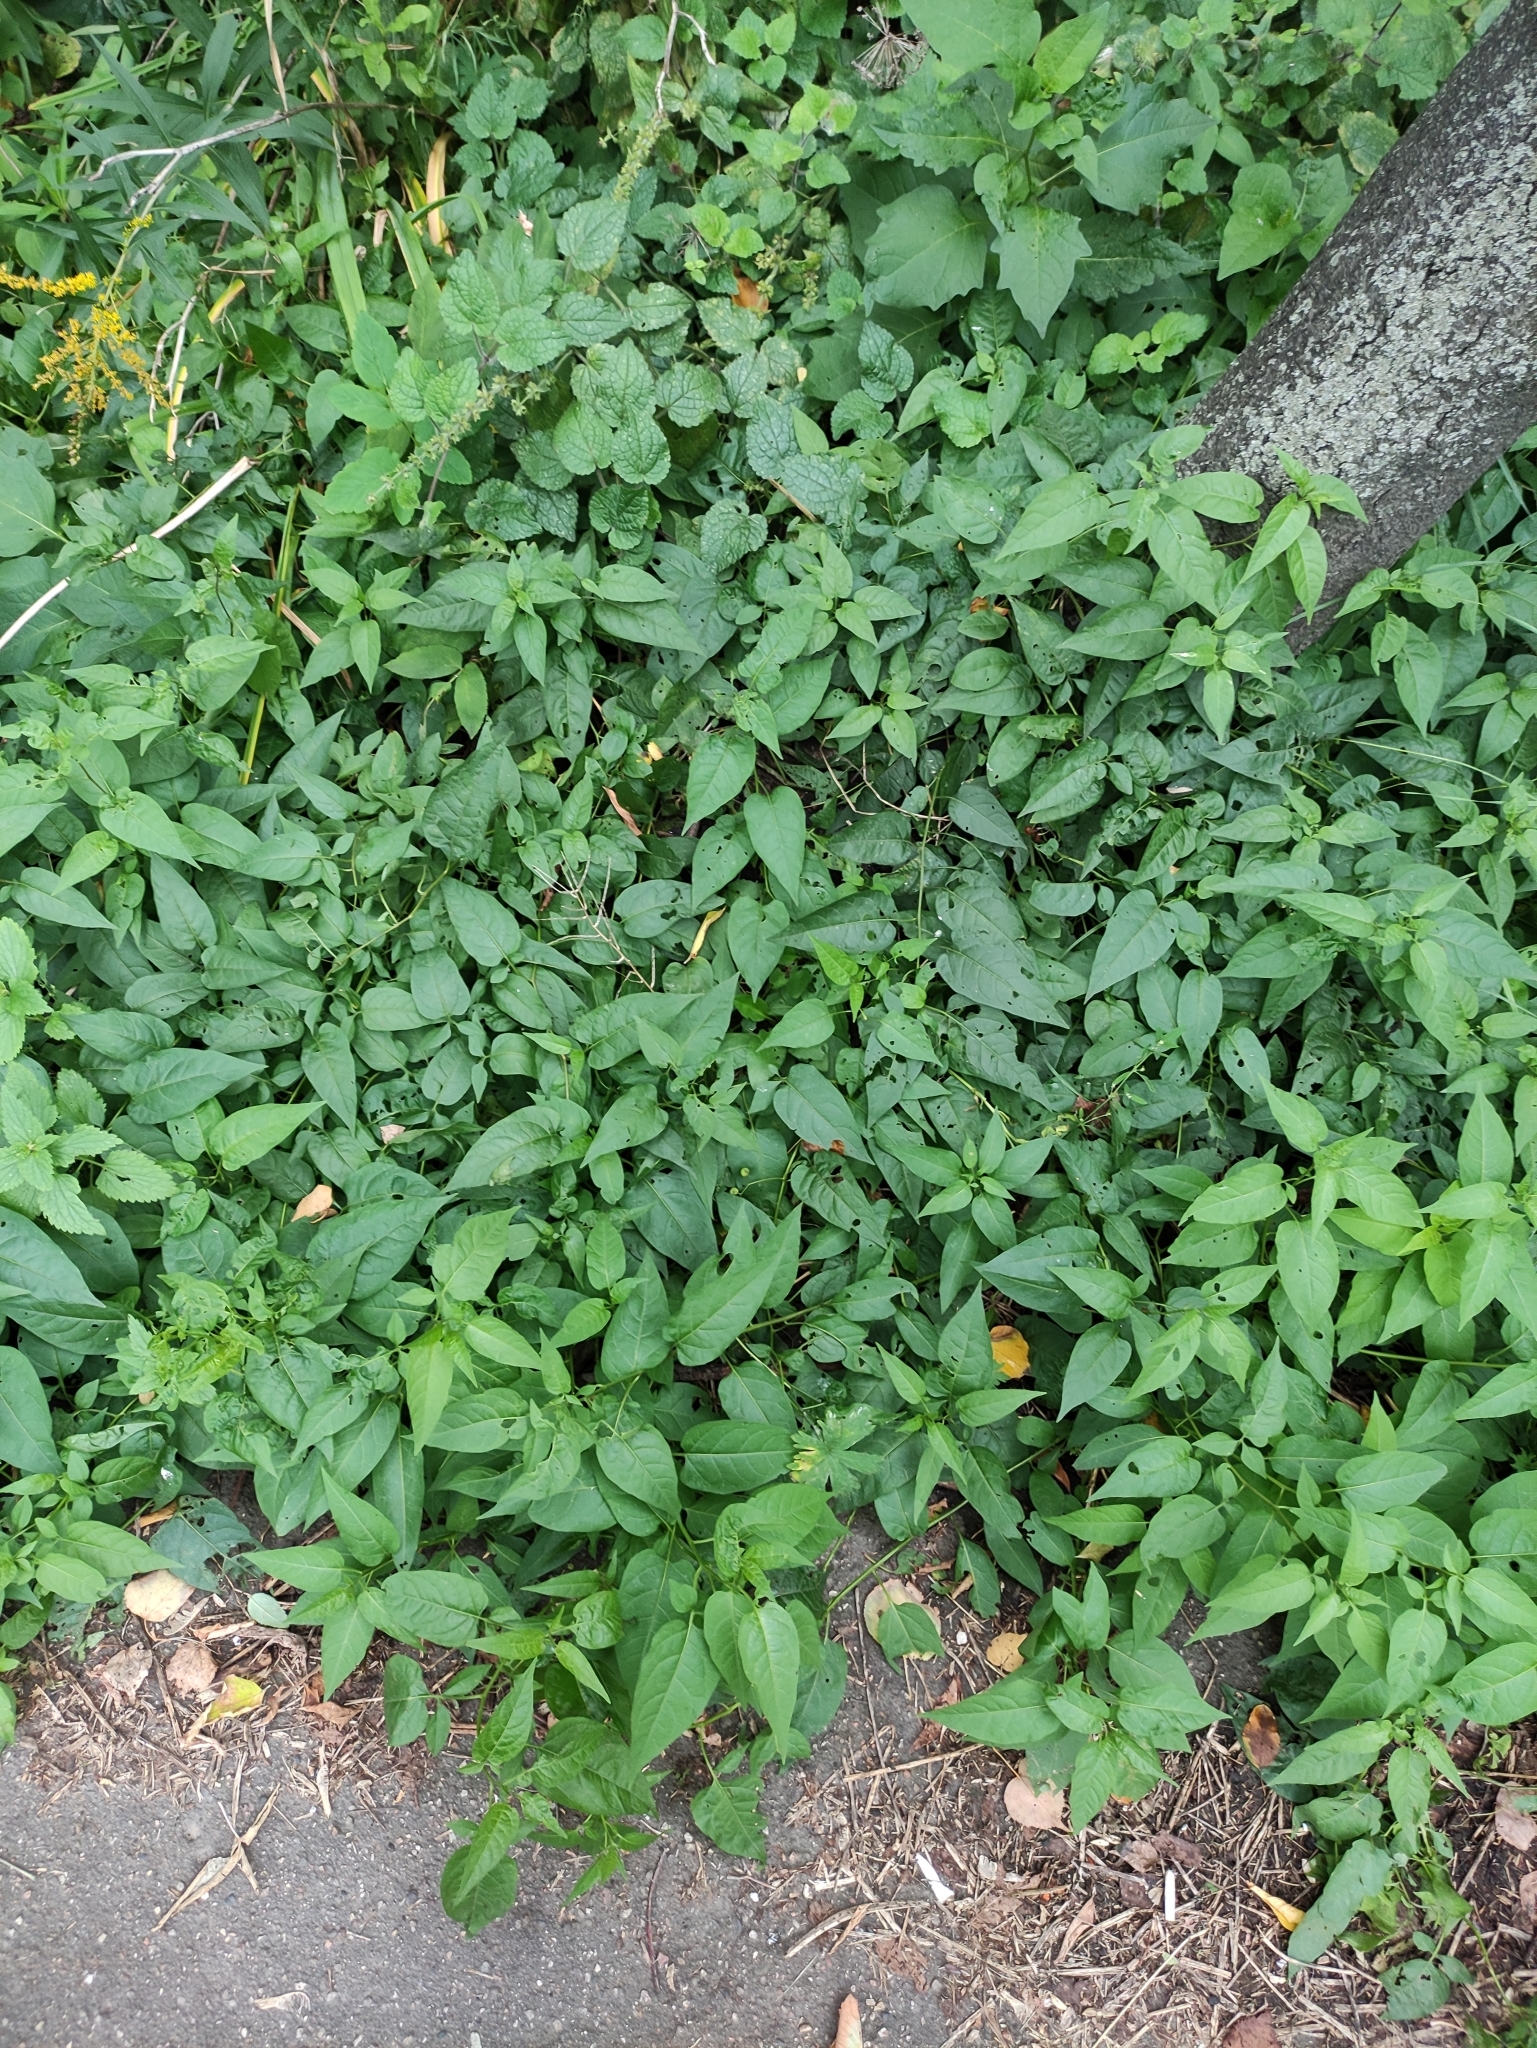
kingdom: Plantae
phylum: Tracheophyta
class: Magnoliopsida
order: Solanales
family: Solanaceae
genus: Solanum
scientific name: Solanum dulcamara
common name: Climbing nightshade
